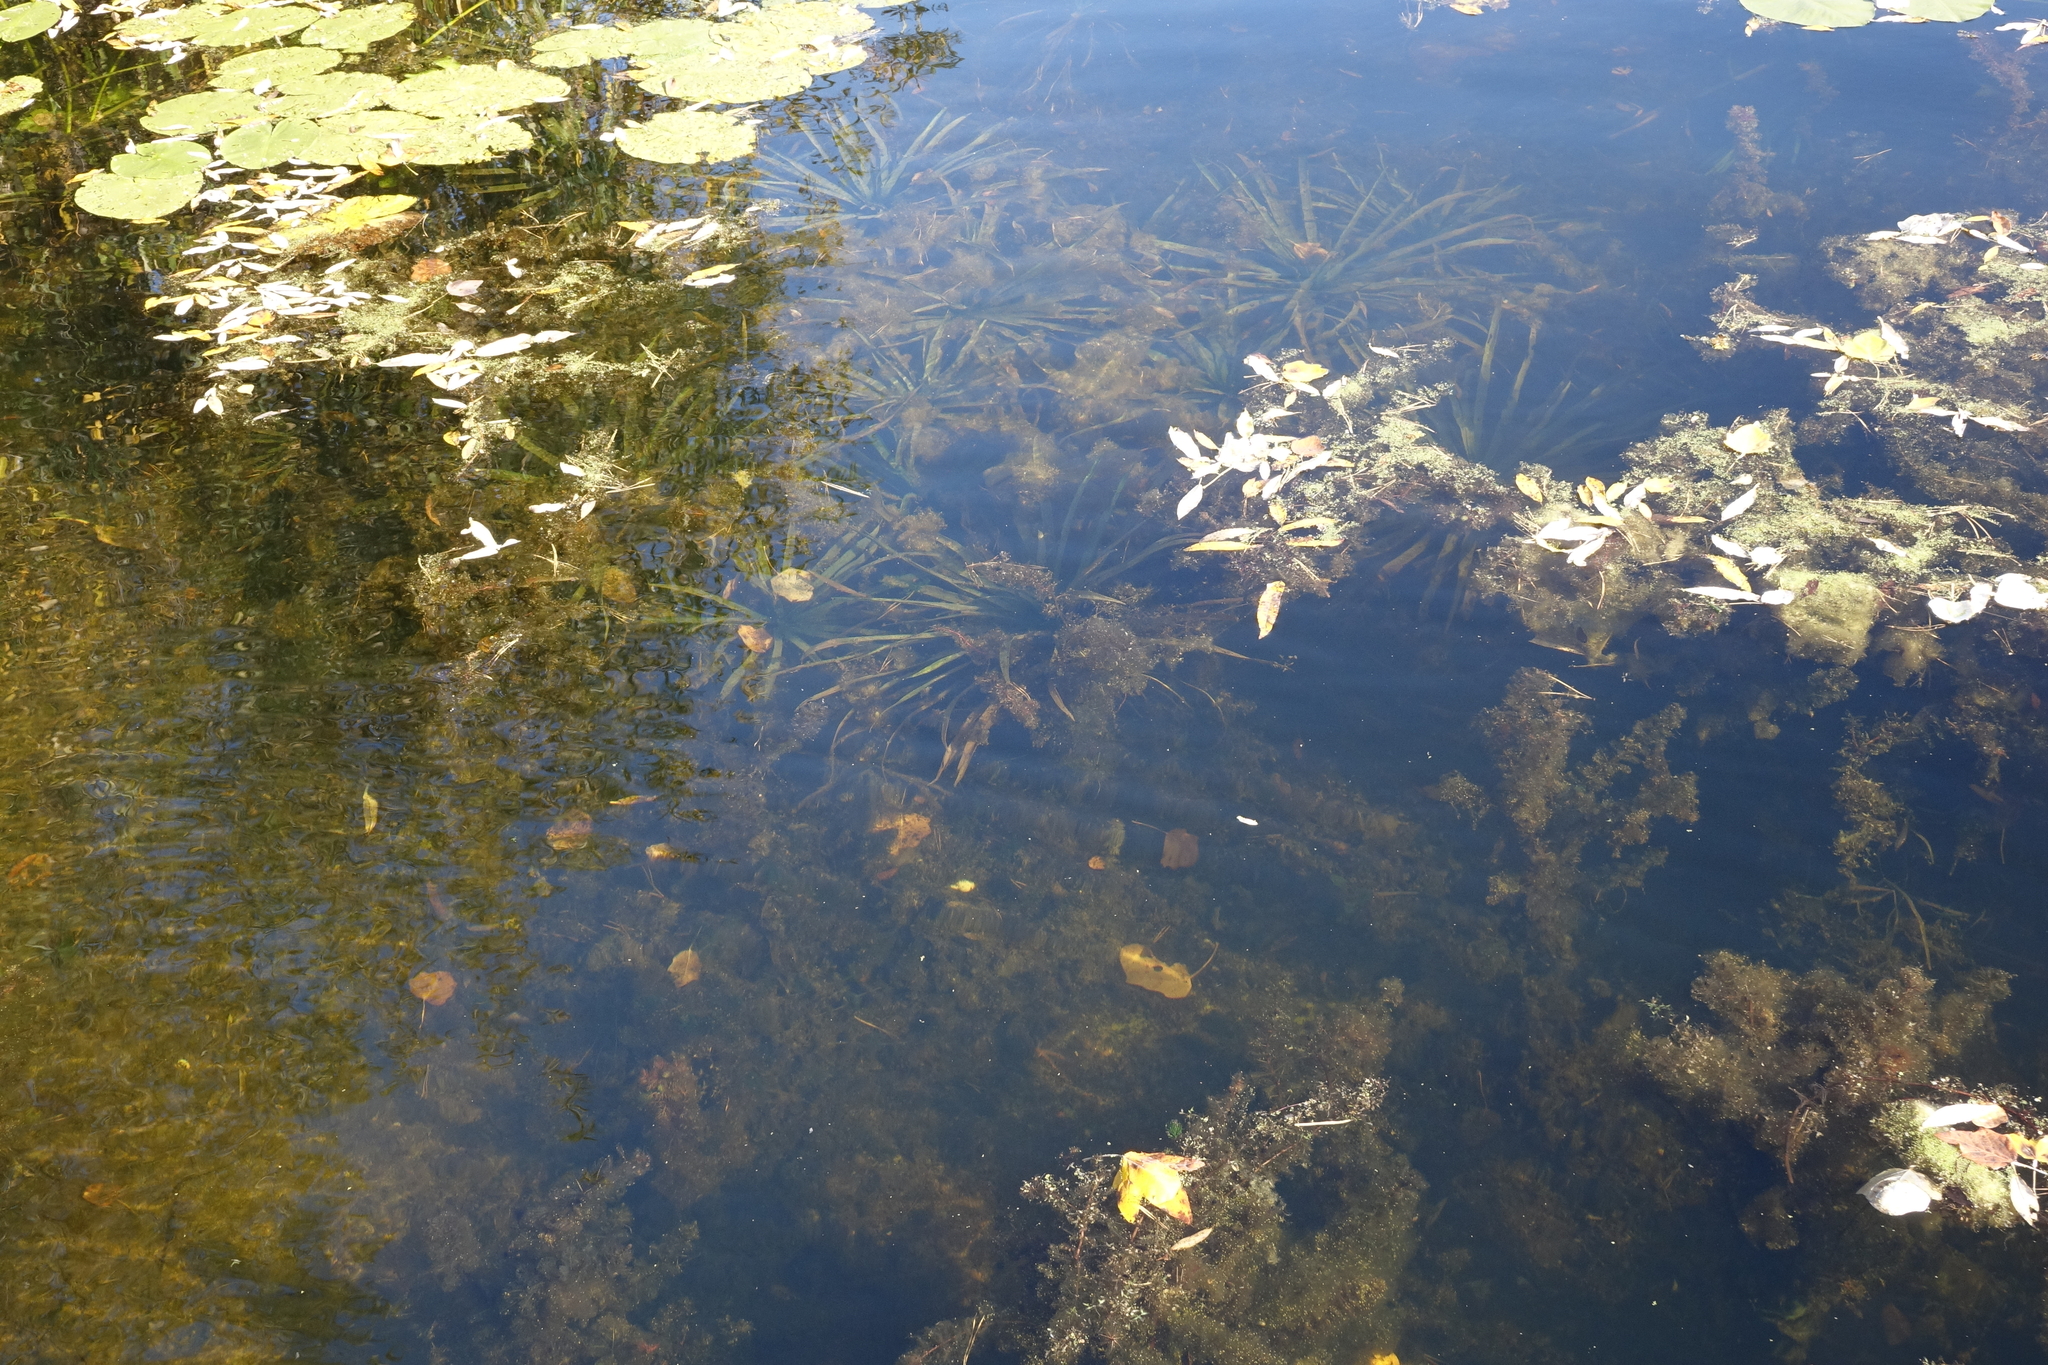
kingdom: Plantae
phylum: Tracheophyta
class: Liliopsida
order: Alismatales
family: Hydrocharitaceae
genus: Stratiotes
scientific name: Stratiotes aloides
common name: Water-soldier
